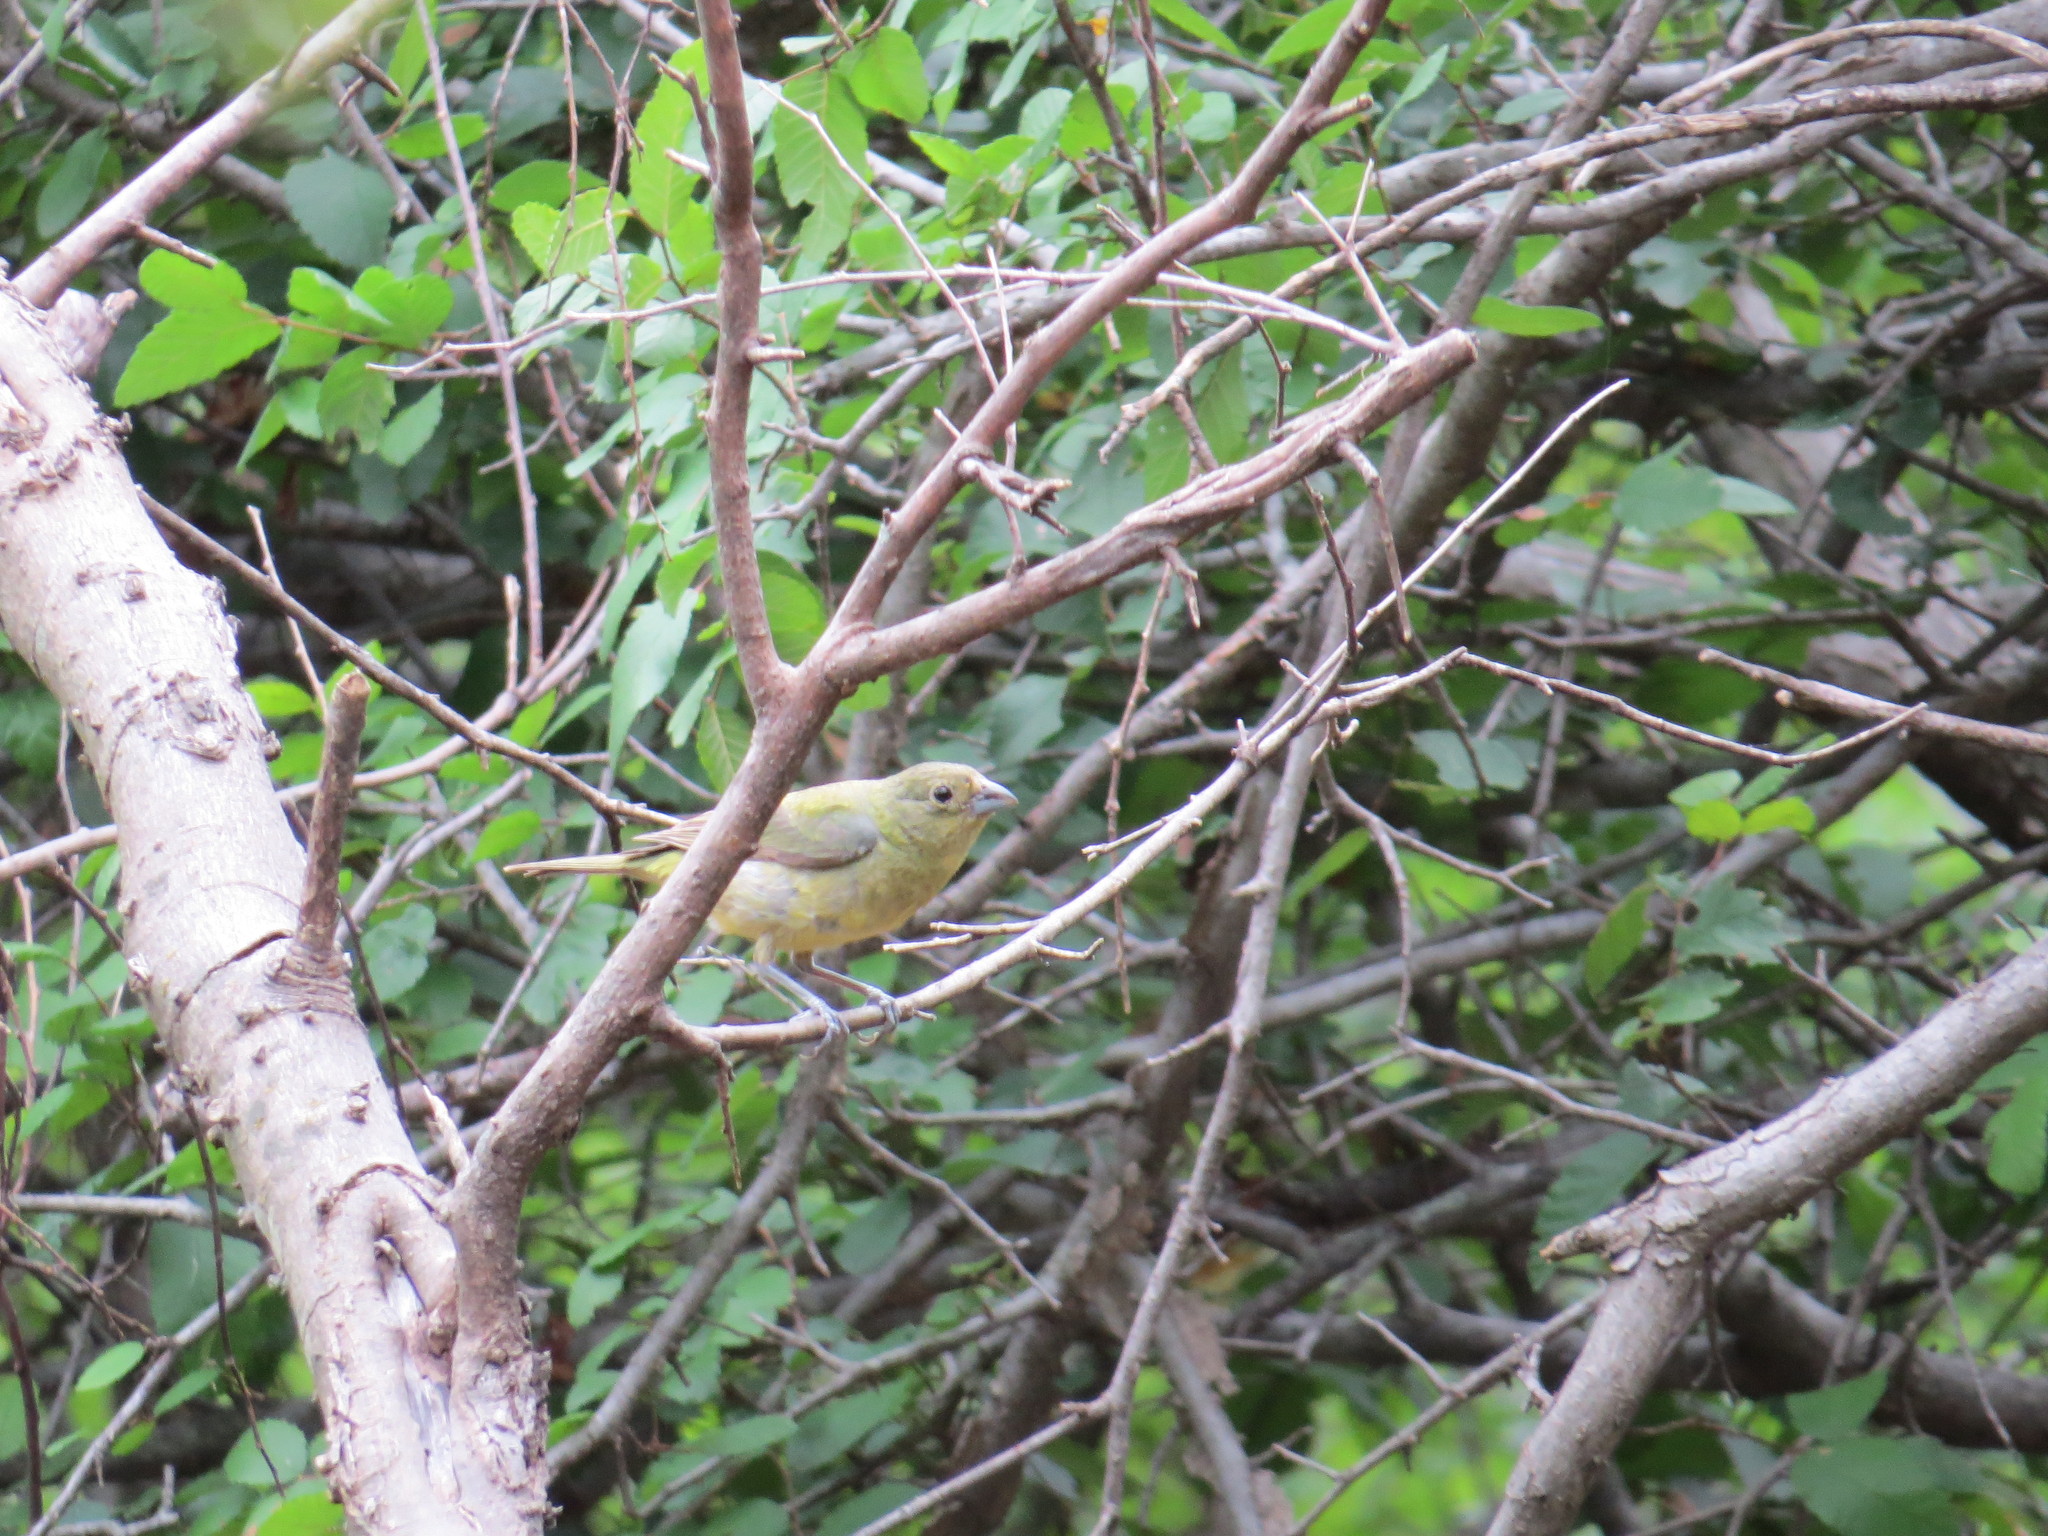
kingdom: Animalia
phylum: Chordata
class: Aves
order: Passeriformes
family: Cardinalidae
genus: Passerina
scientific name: Passerina ciris
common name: Painted bunting
